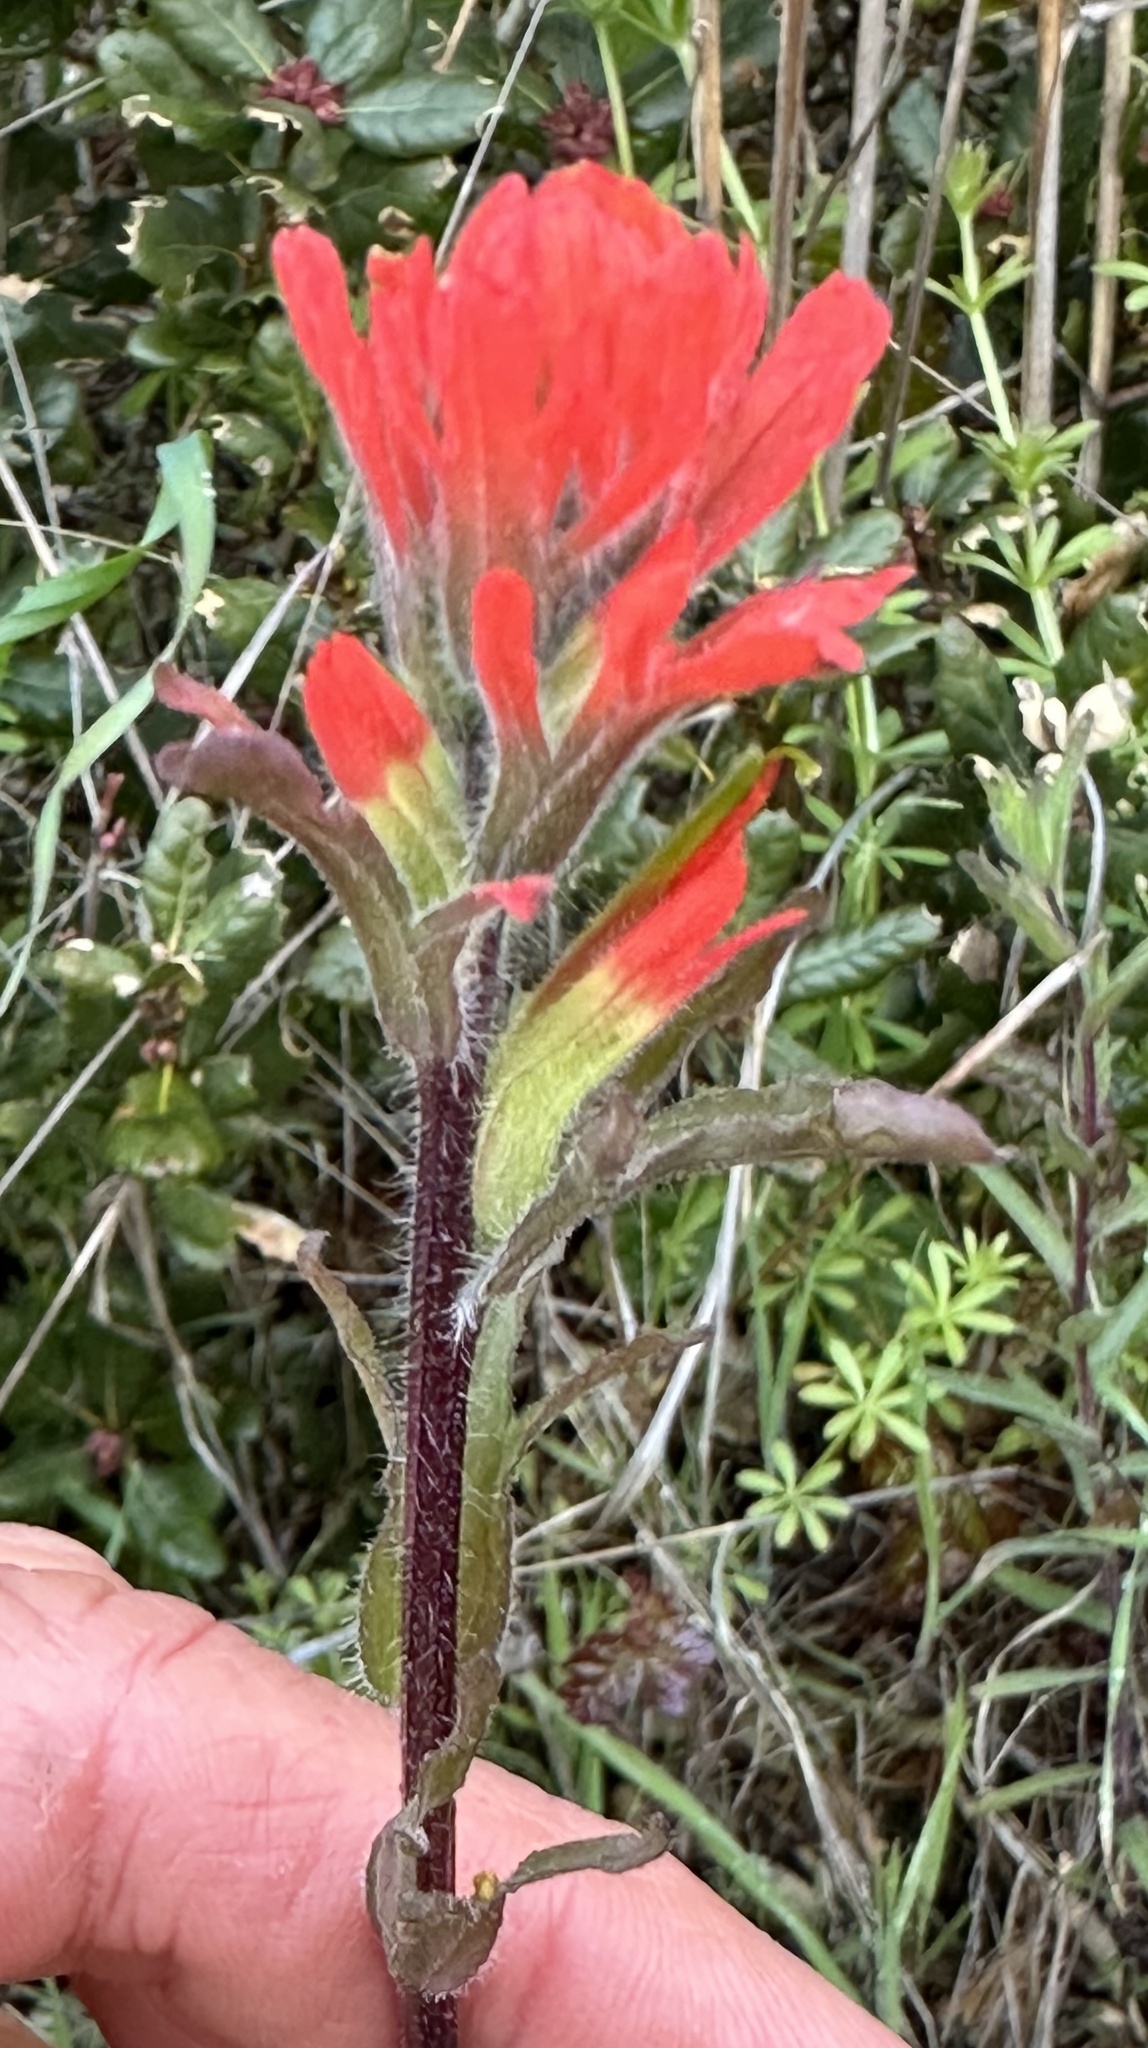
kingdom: Plantae
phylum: Tracheophyta
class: Magnoliopsida
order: Lamiales
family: Orobanchaceae
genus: Castilleja
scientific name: Castilleja affinis
